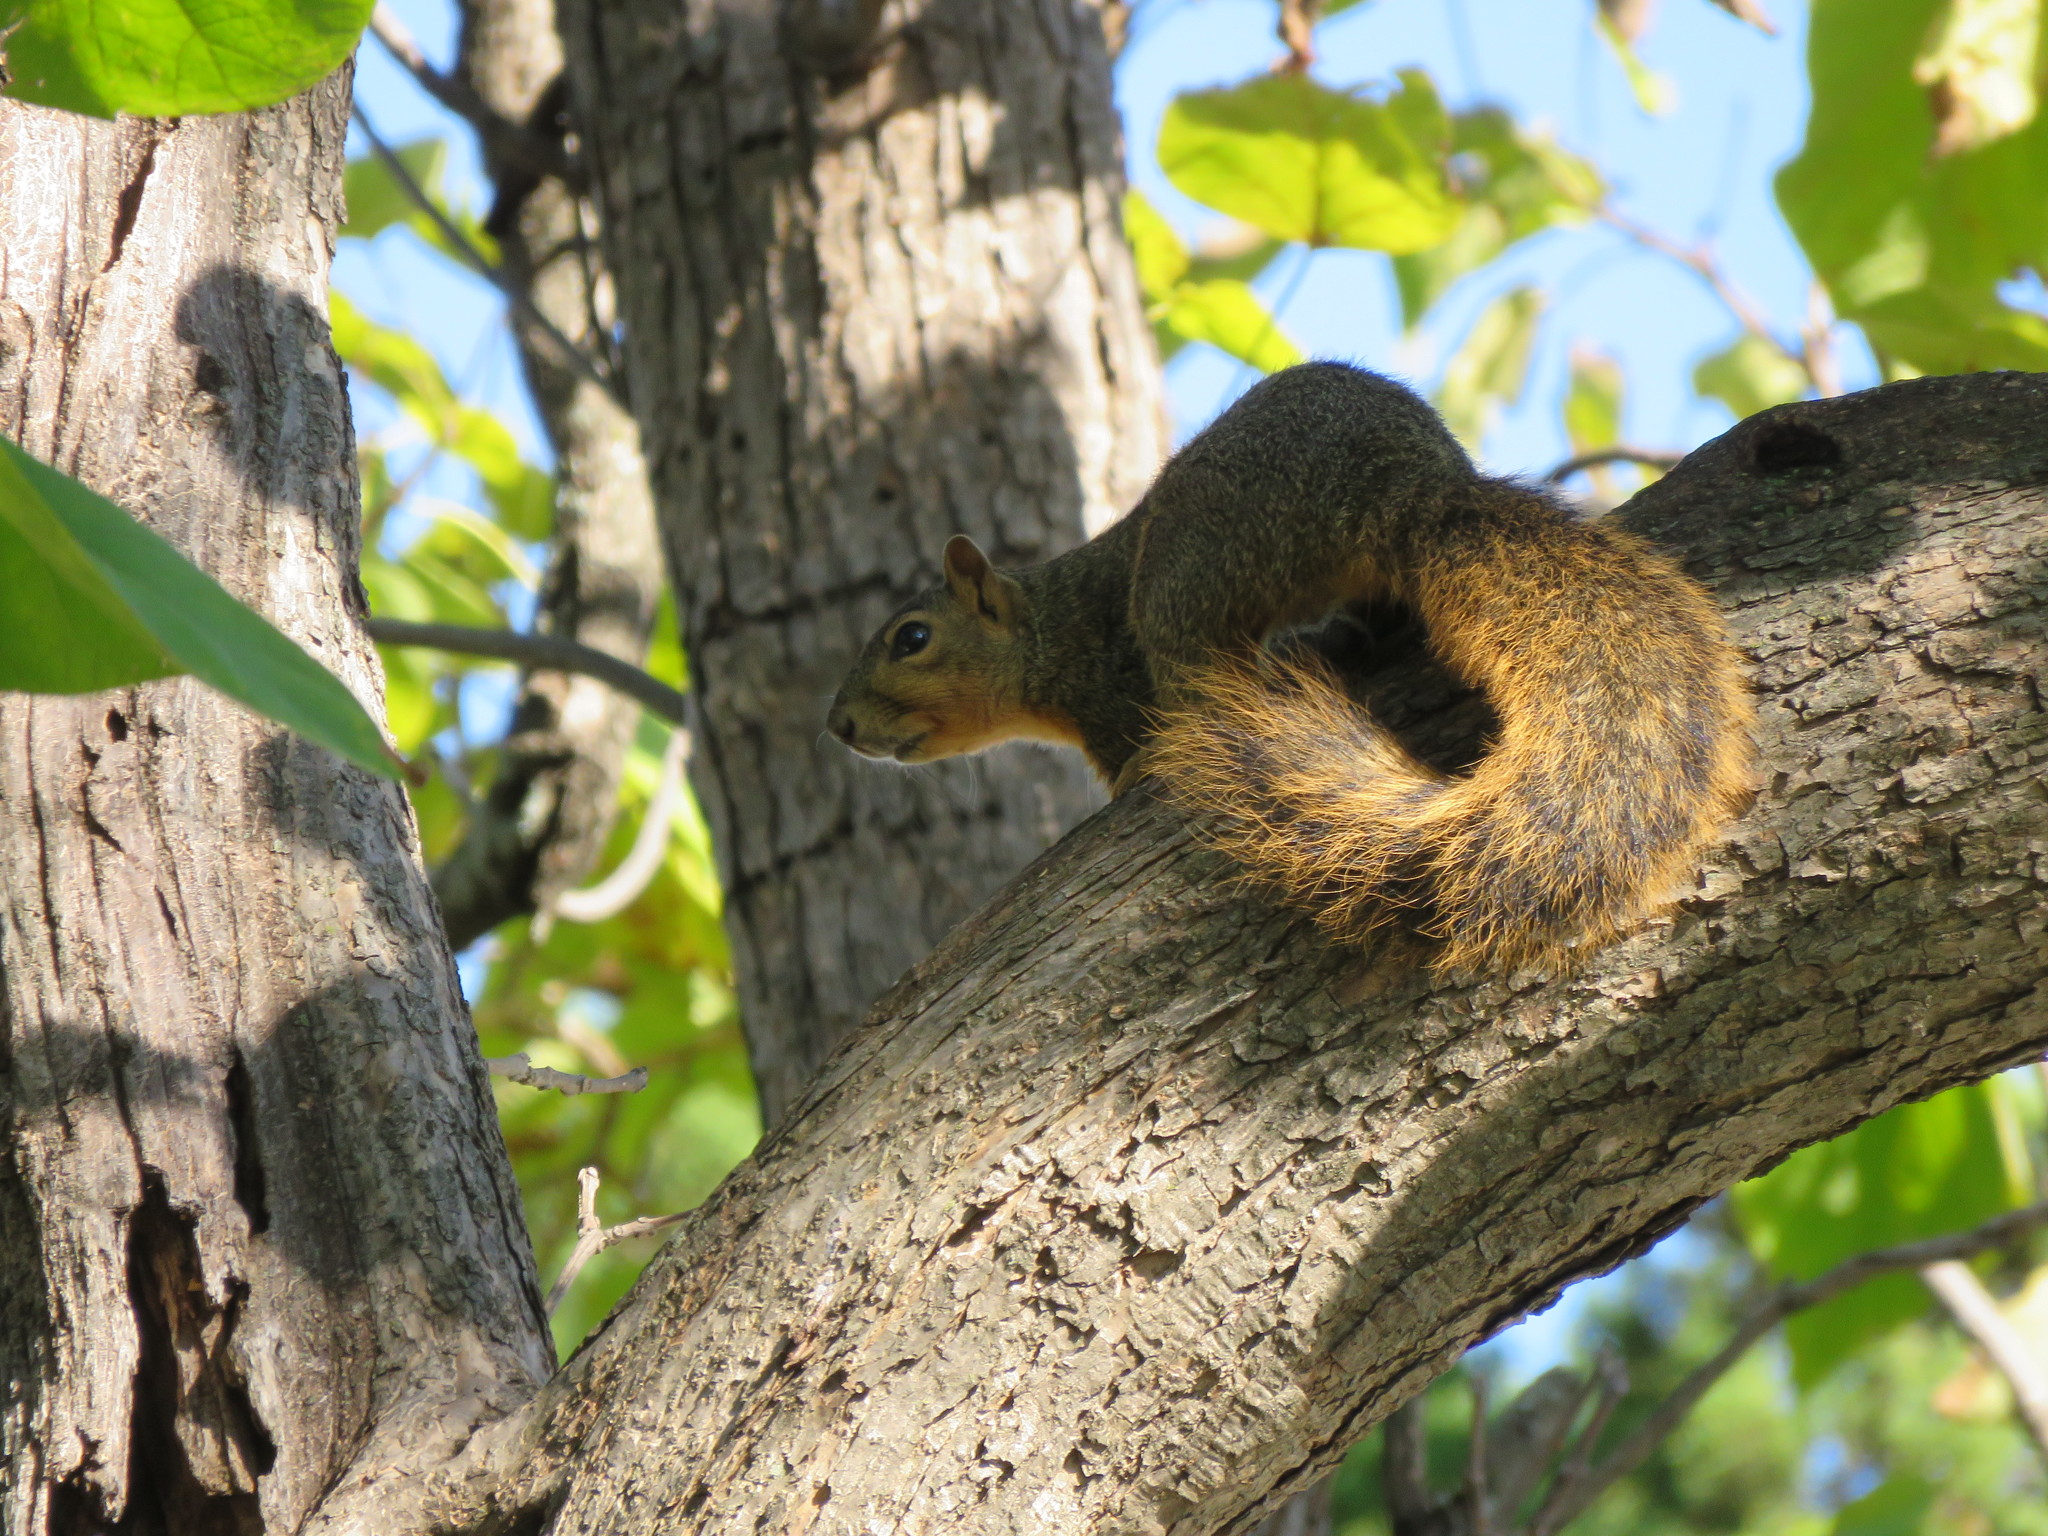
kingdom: Animalia
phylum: Chordata
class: Mammalia
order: Rodentia
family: Sciuridae
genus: Sciurus
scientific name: Sciurus niger
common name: Fox squirrel
